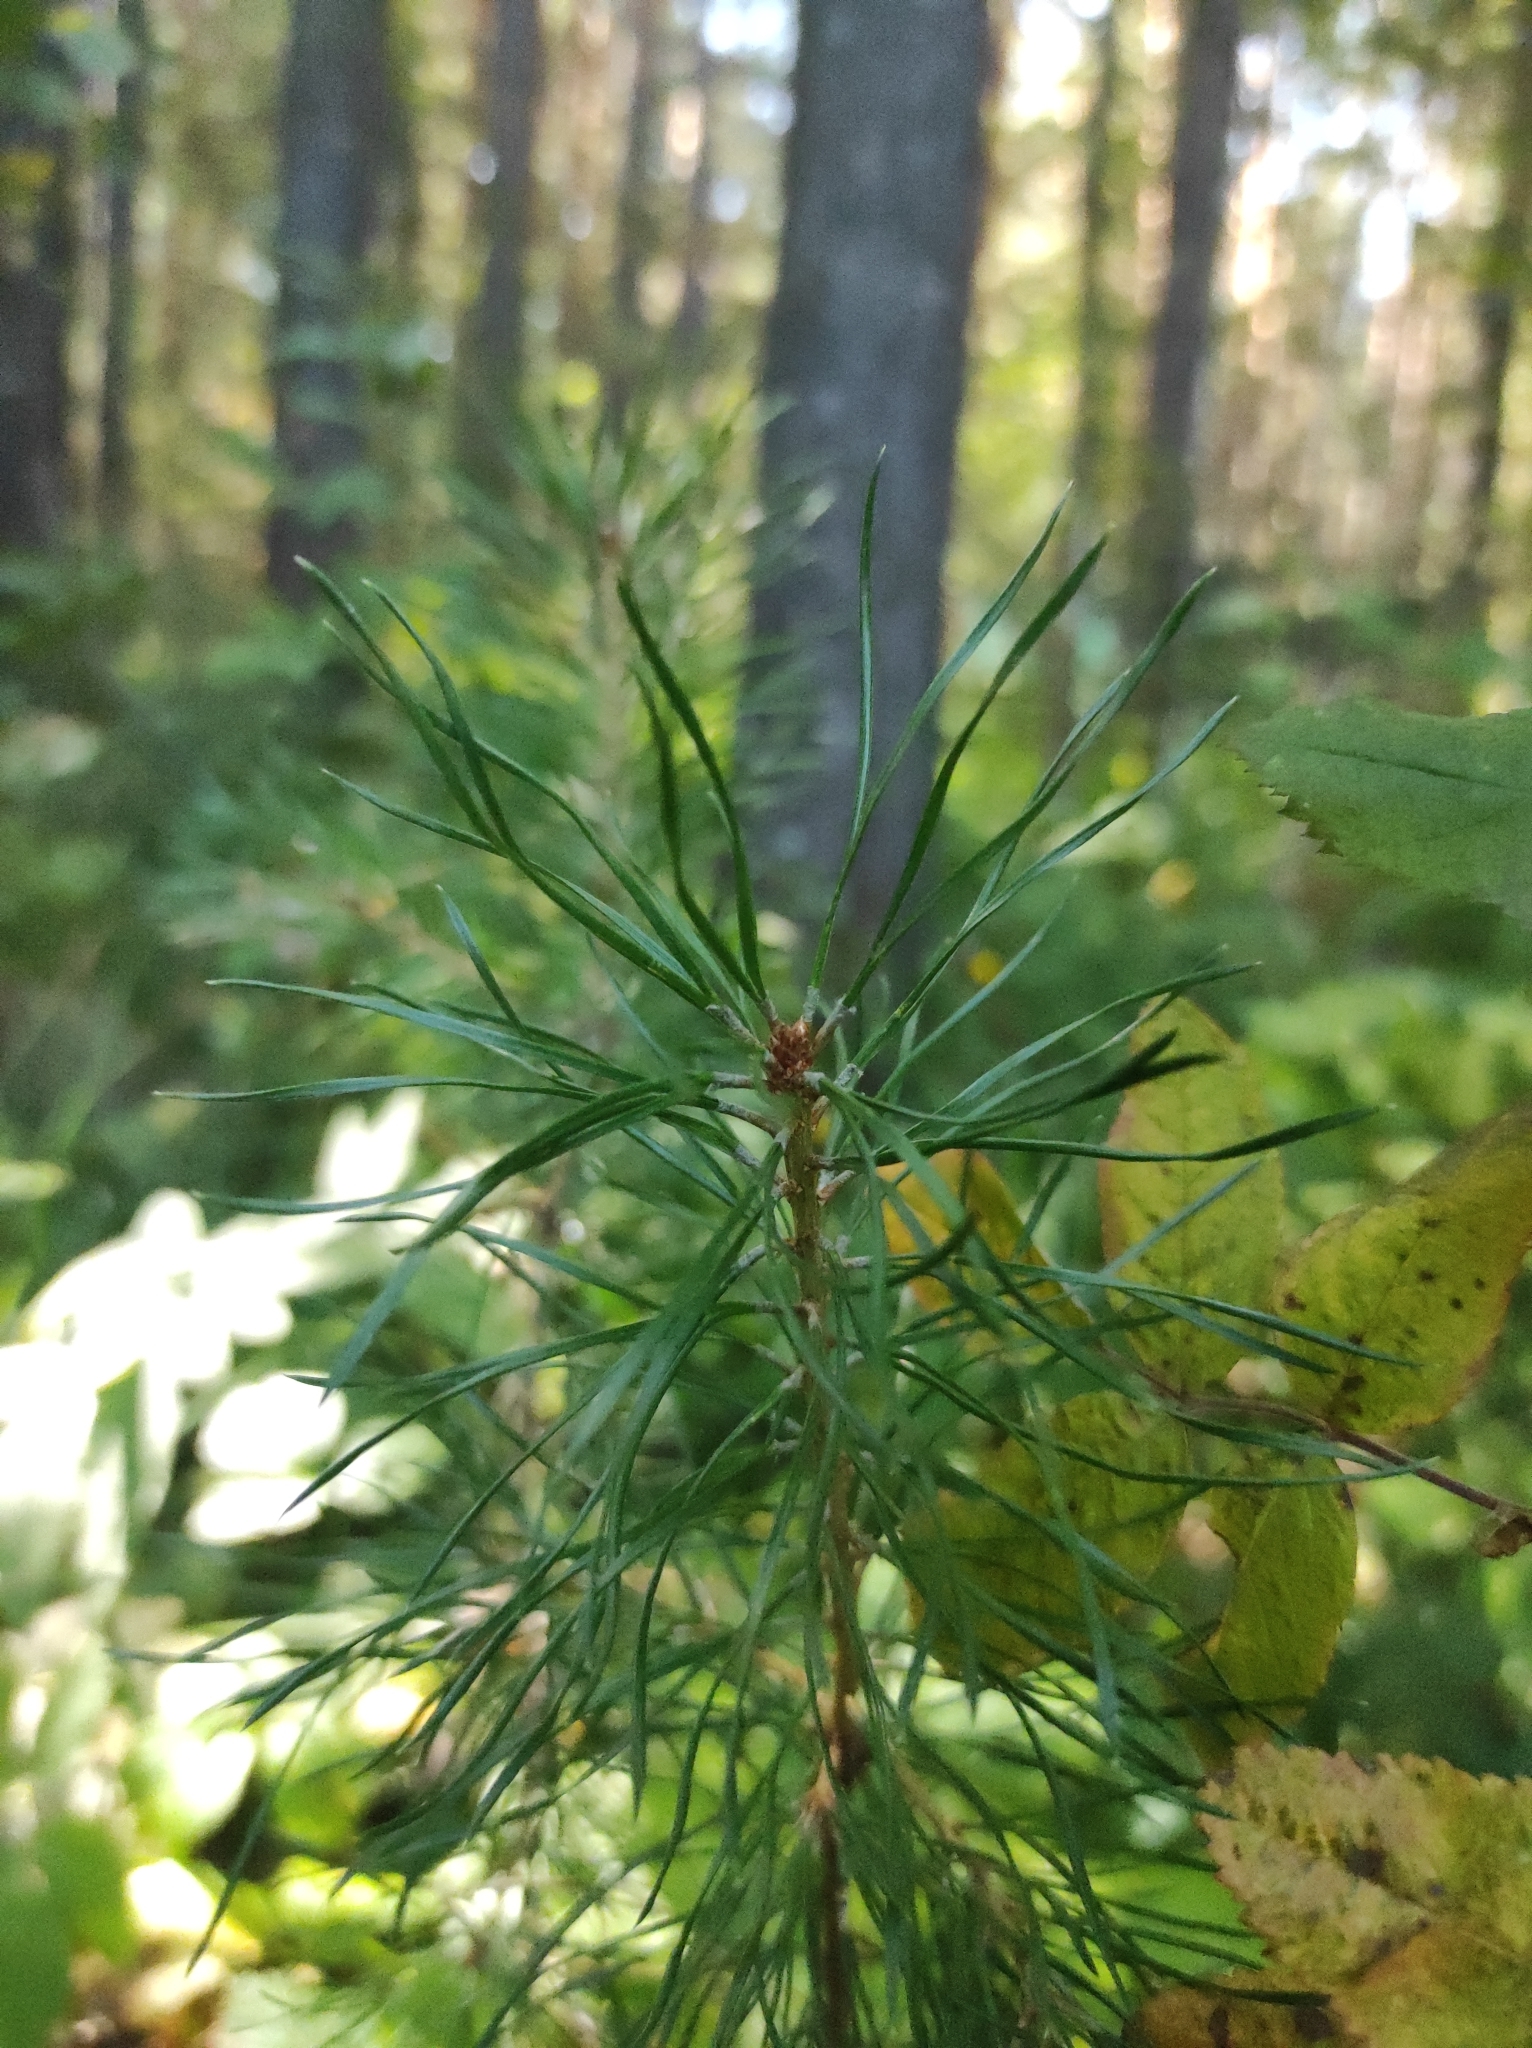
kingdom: Plantae
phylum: Tracheophyta
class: Pinopsida
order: Pinales
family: Pinaceae
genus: Pinus
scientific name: Pinus sylvestris
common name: Scots pine
